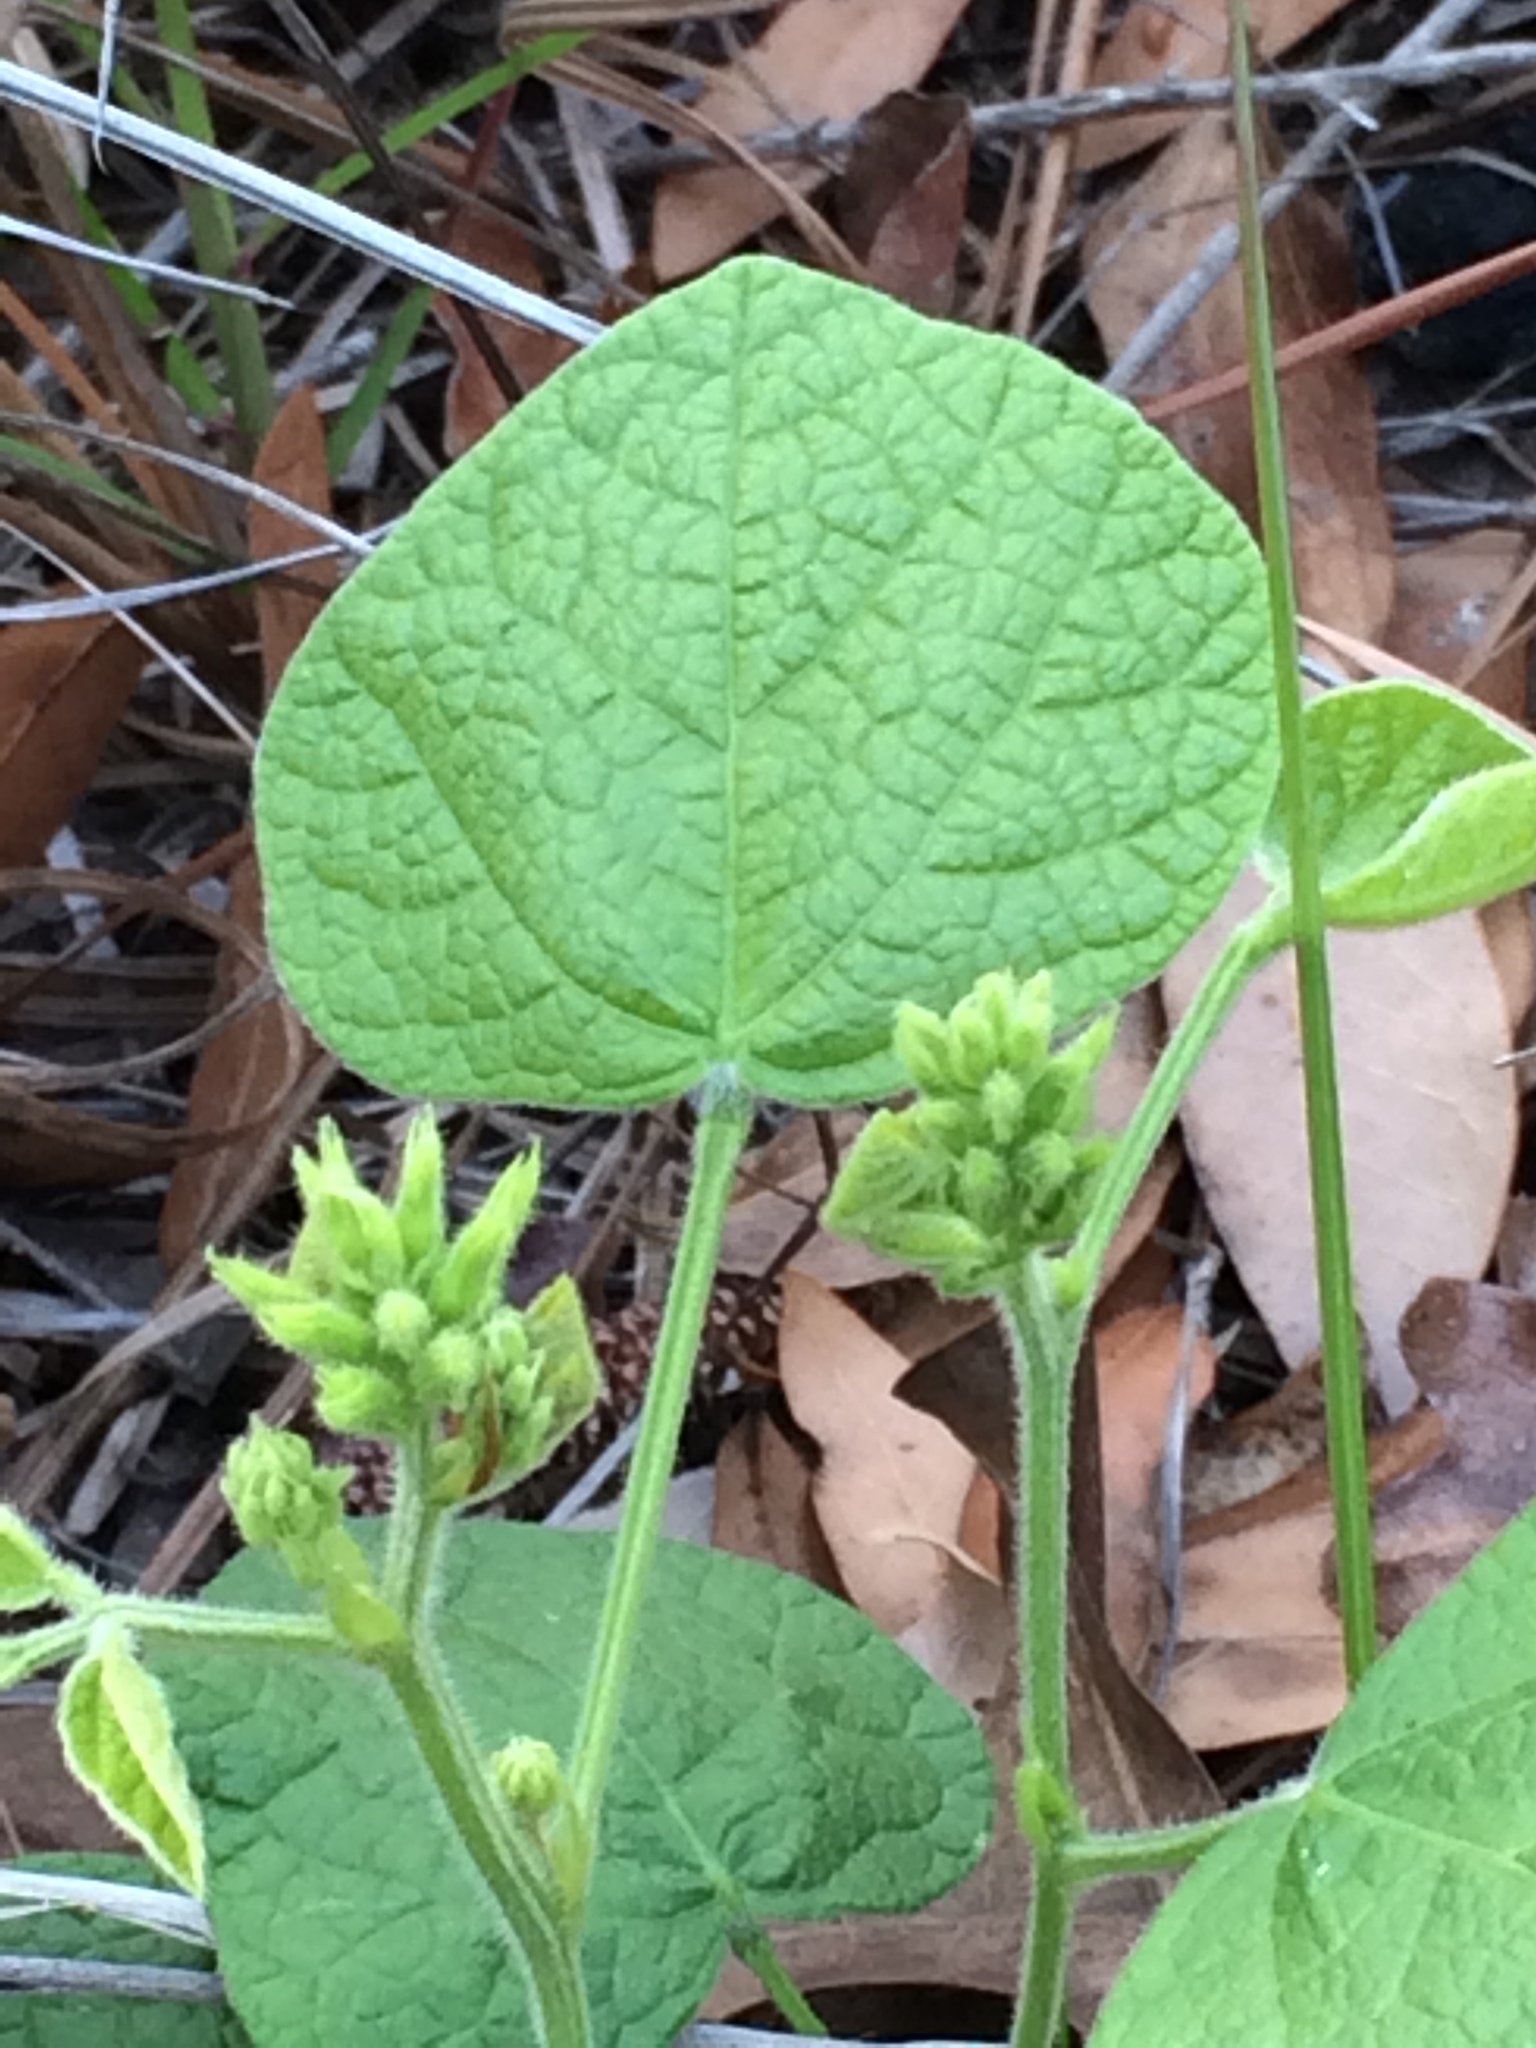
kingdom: Plantae
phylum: Tracheophyta
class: Magnoliopsida
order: Fabales
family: Fabaceae
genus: Rhynchosia
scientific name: Rhynchosia reniformis
